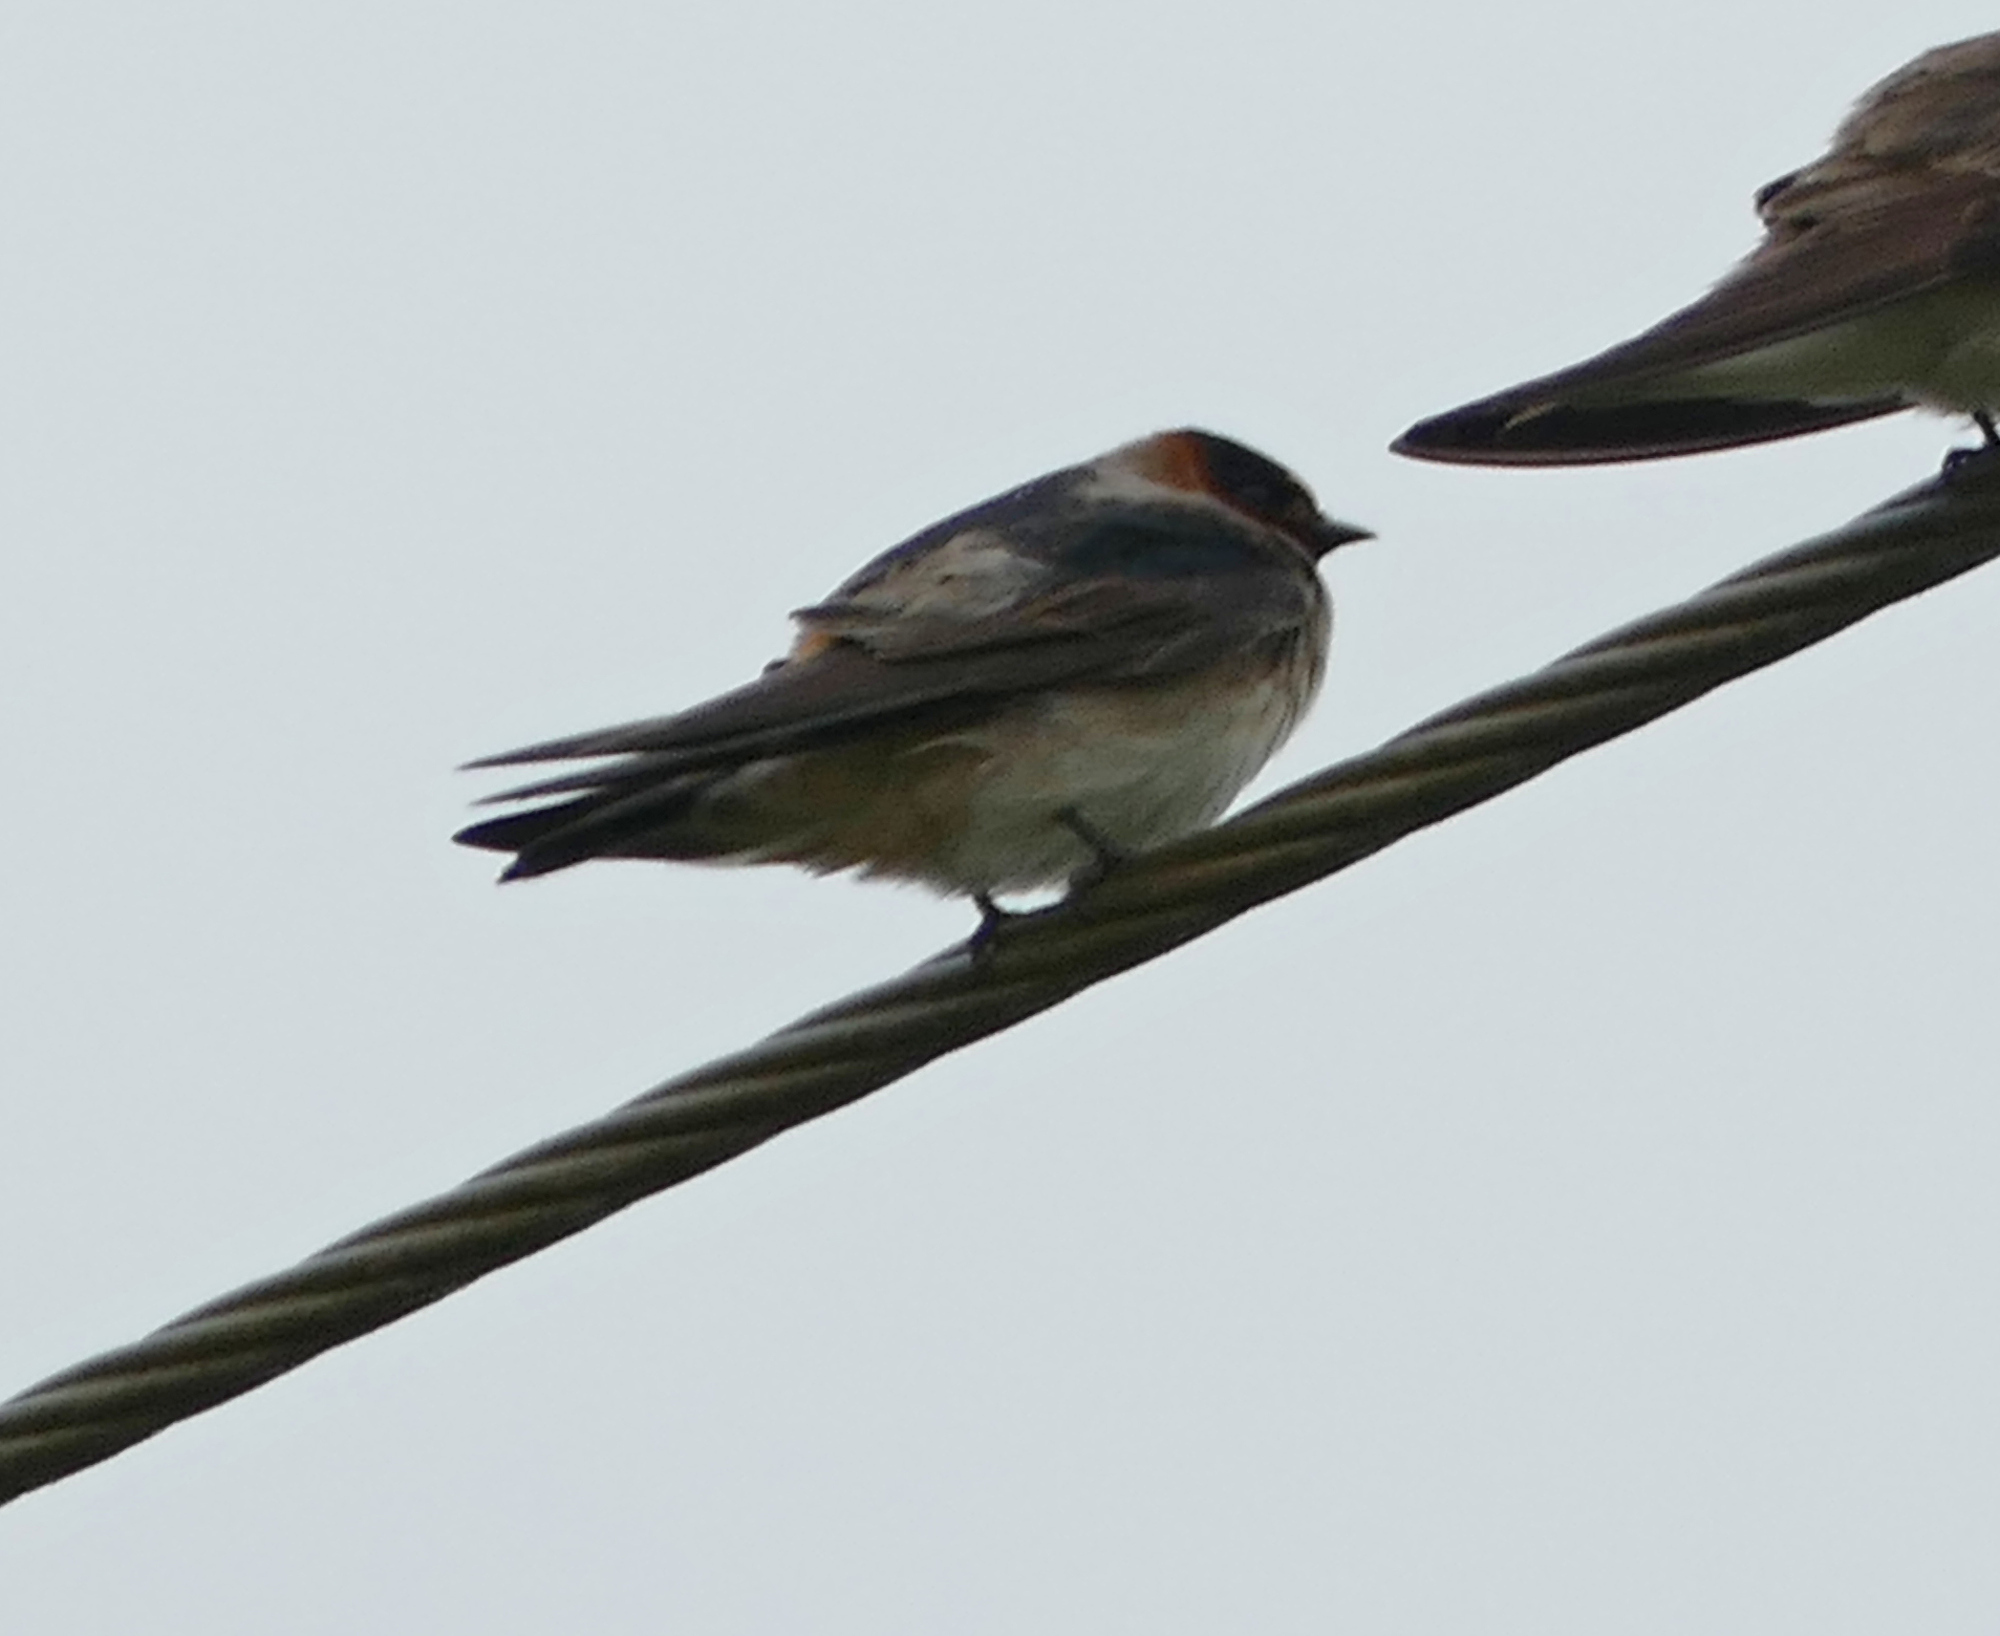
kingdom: Animalia
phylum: Chordata
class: Aves
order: Passeriformes
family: Hirundinidae
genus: Petrochelidon
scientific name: Petrochelidon pyrrhonota
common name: American cliff swallow
